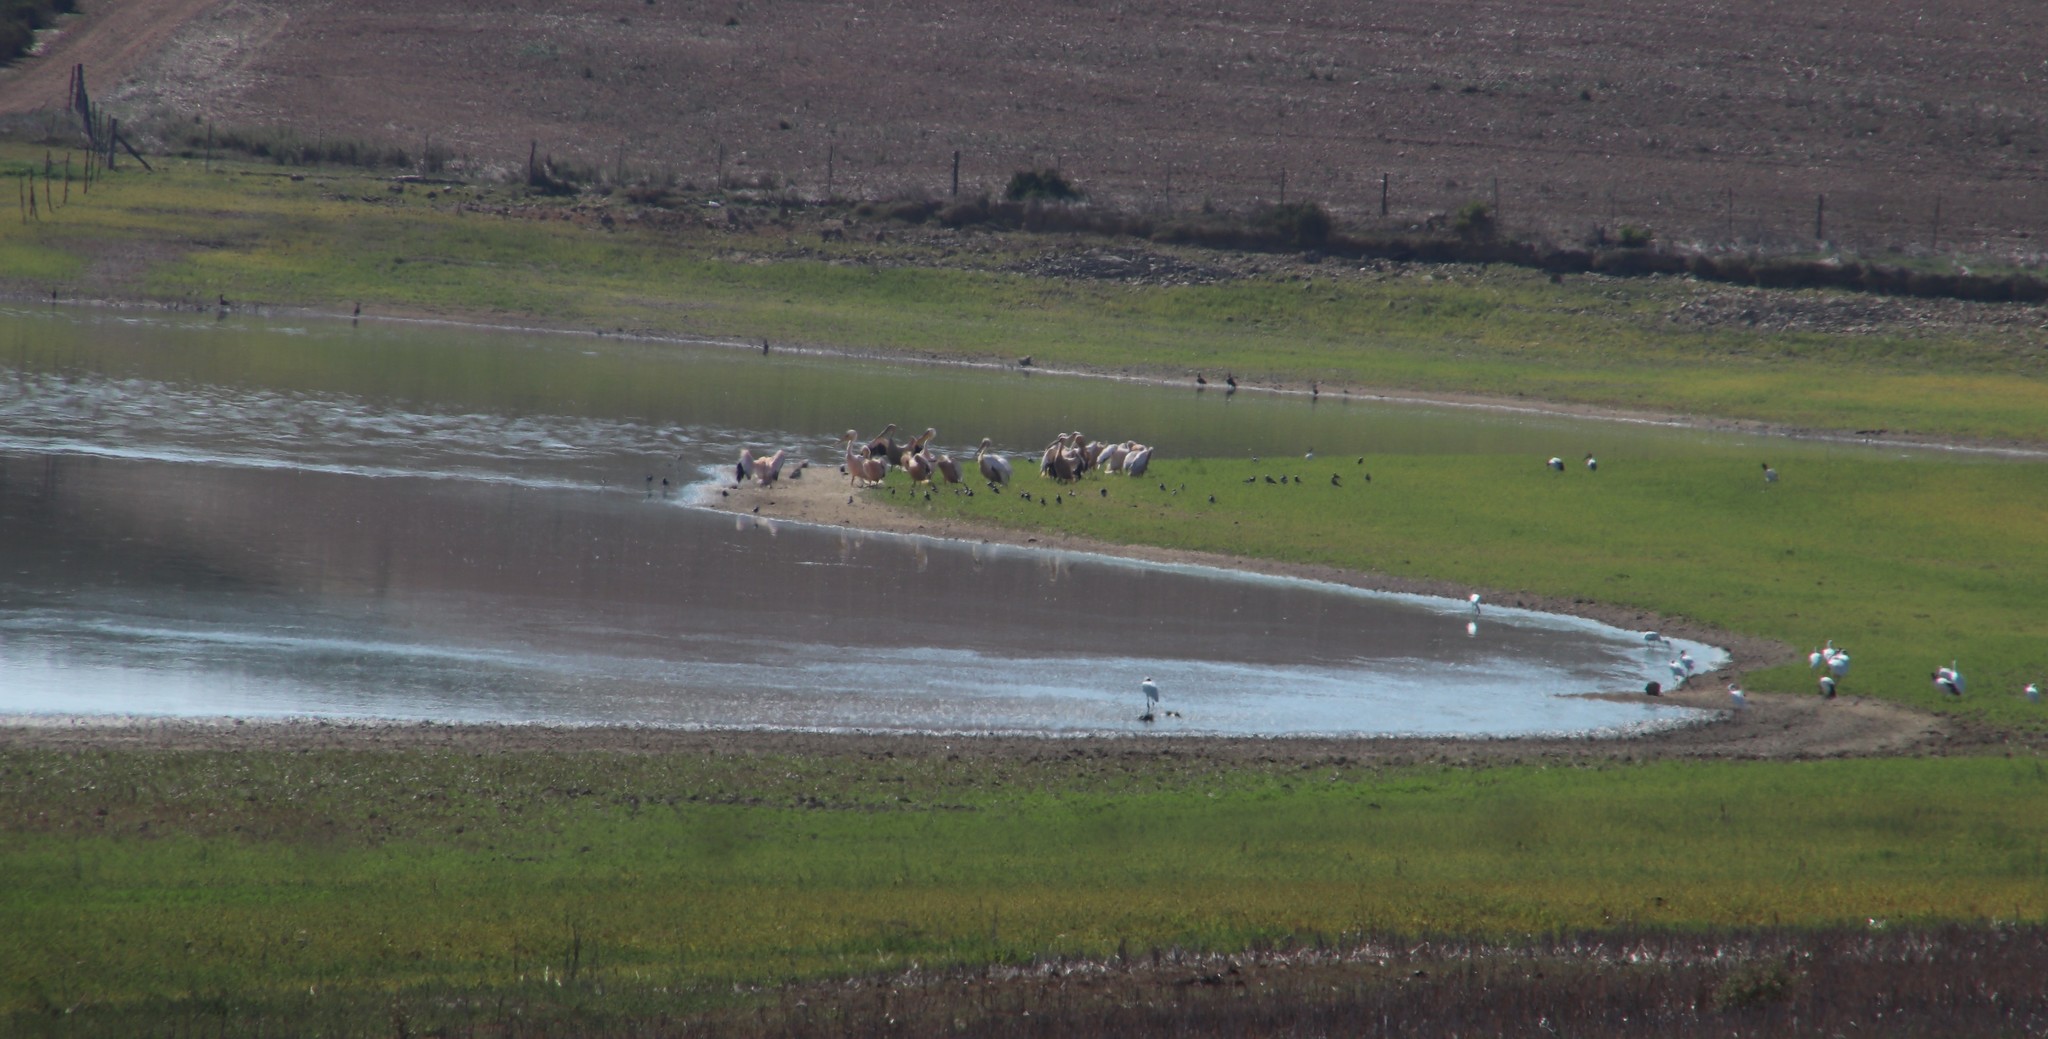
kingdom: Animalia
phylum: Chordata
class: Aves
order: Pelecaniformes
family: Pelecanidae
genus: Pelecanus
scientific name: Pelecanus onocrotalus
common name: Great white pelican
